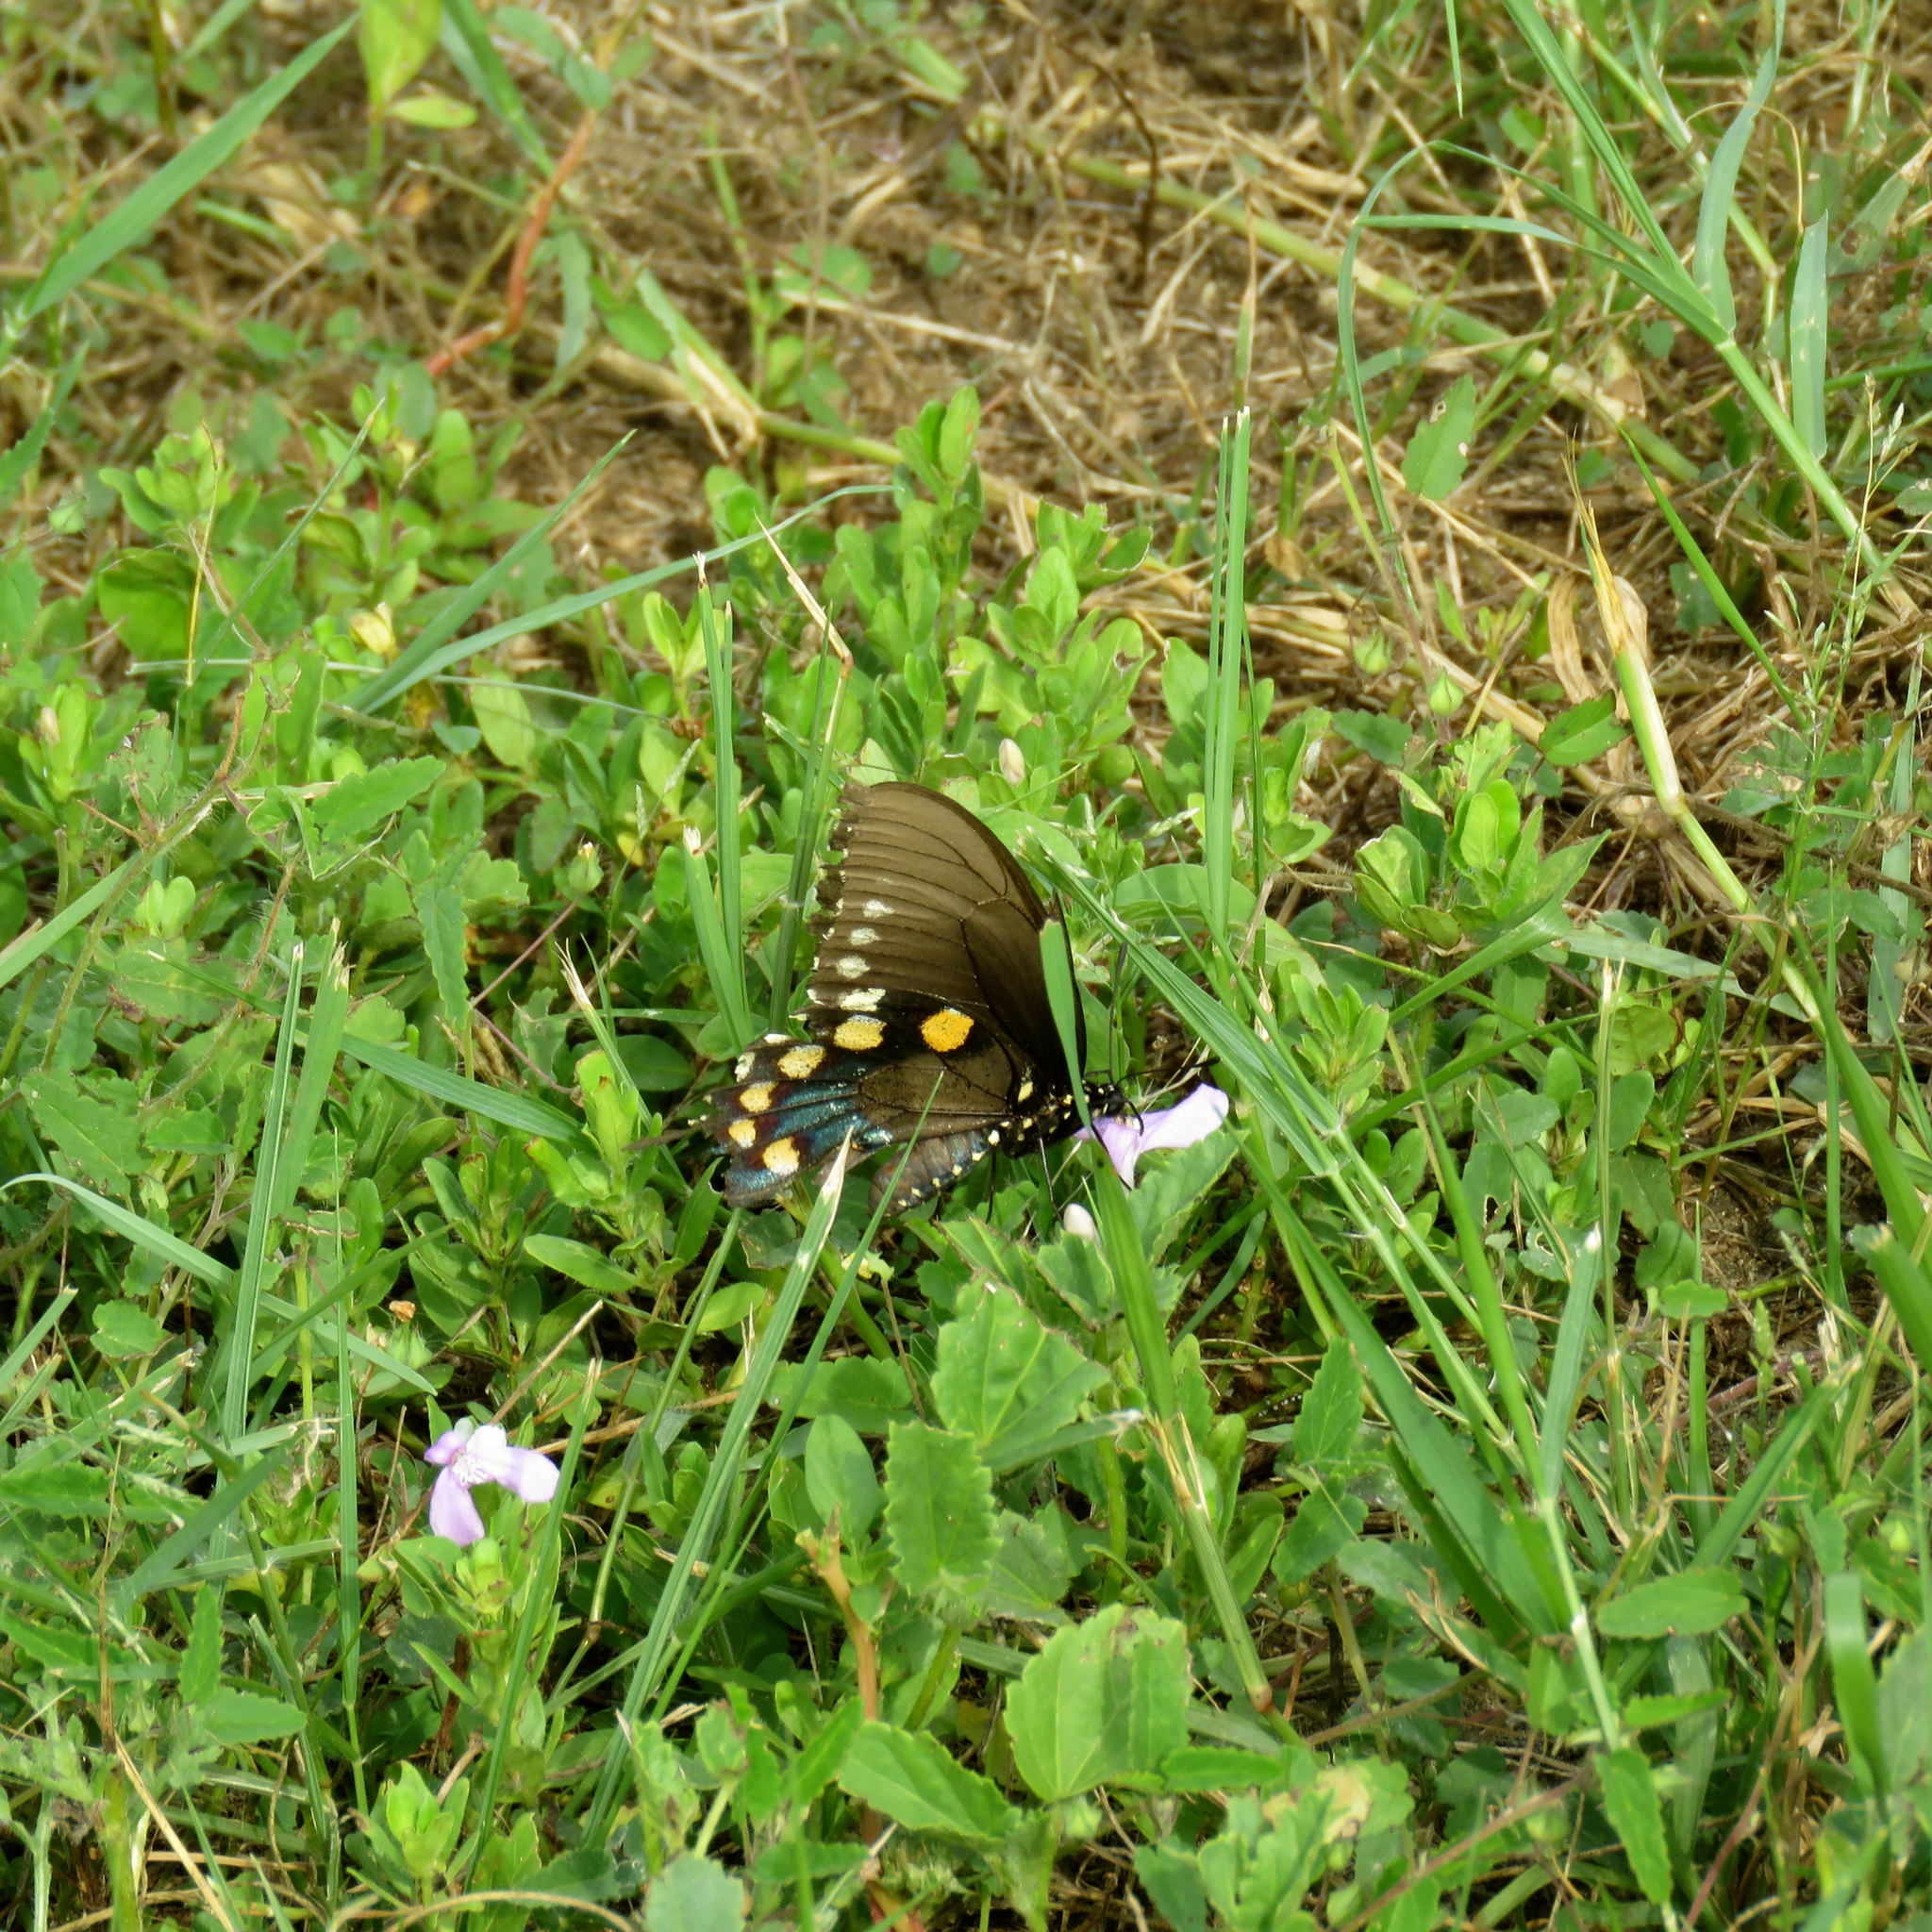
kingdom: Animalia
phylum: Arthropoda
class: Insecta
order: Lepidoptera
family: Papilionidae
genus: Battus
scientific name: Battus philenor
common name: Pipevine swallowtail
